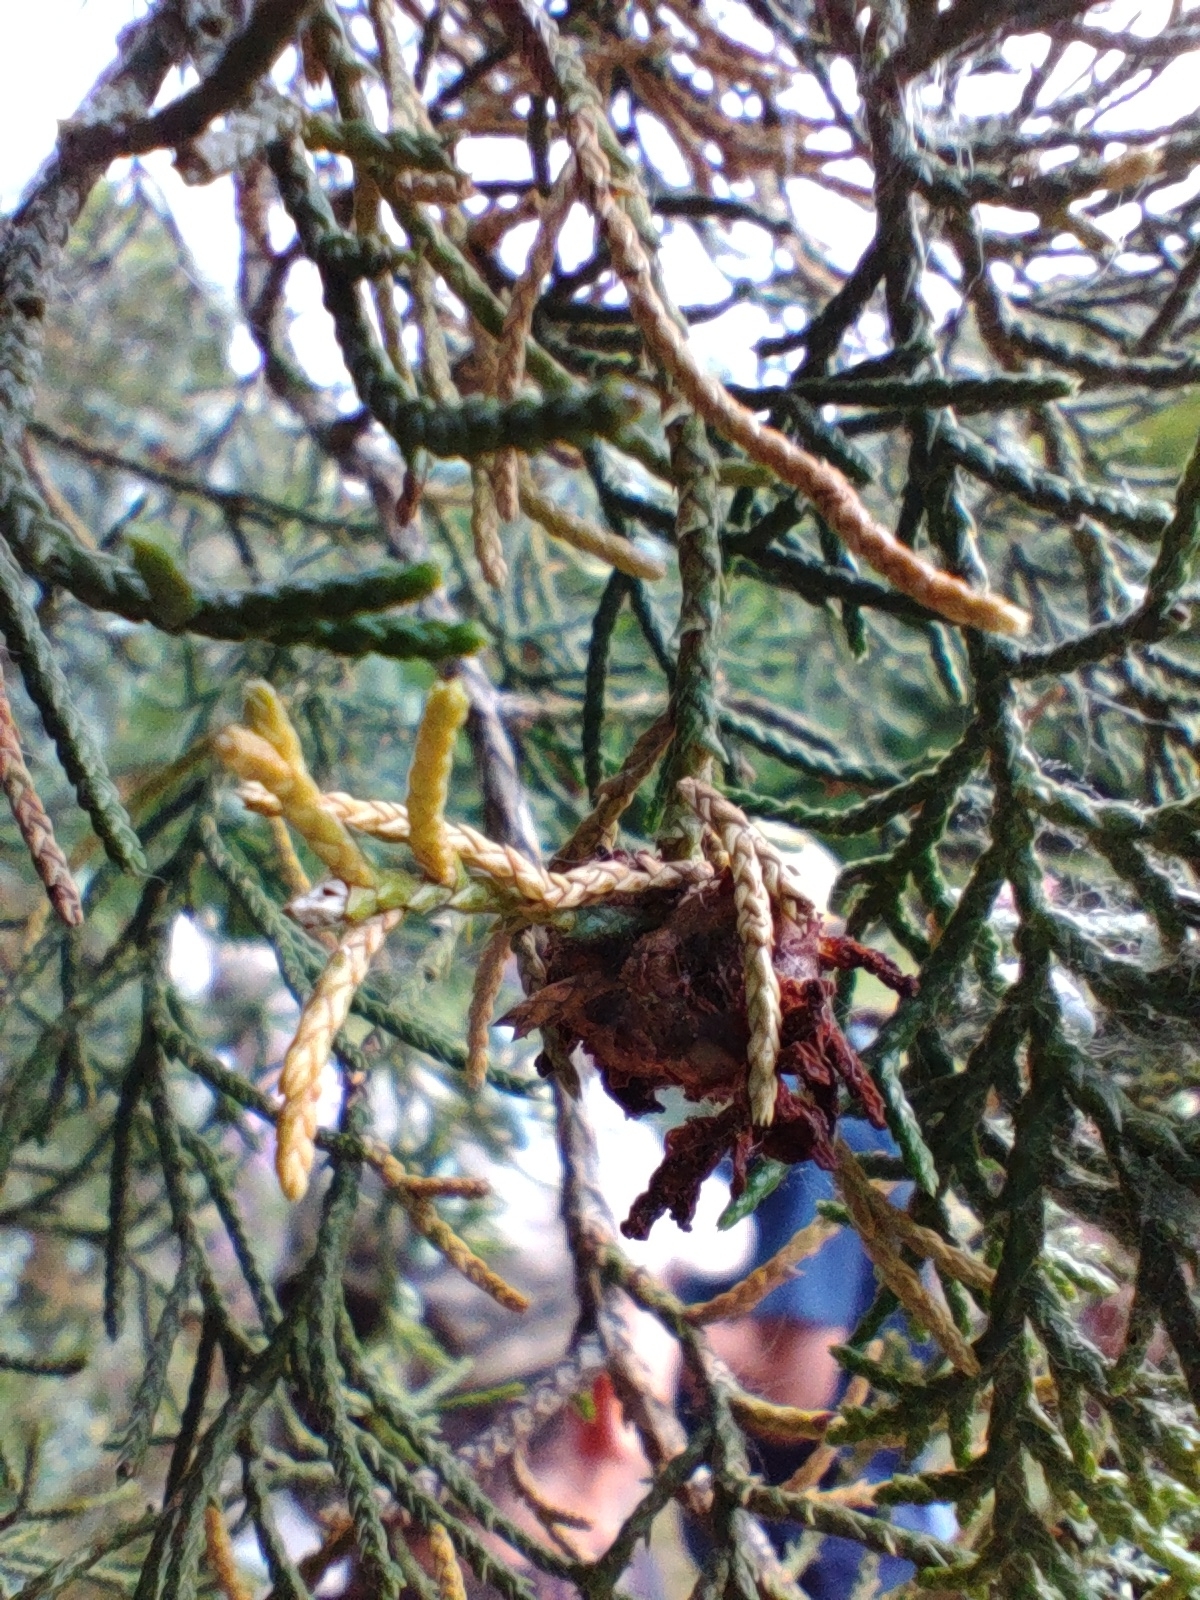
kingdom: Fungi
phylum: Basidiomycota
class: Pucciniomycetes
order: Pucciniales
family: Gymnosporangiaceae
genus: Gymnosporangium
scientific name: Gymnosporangium juniperi-virginianae
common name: Juniper-apple rust
